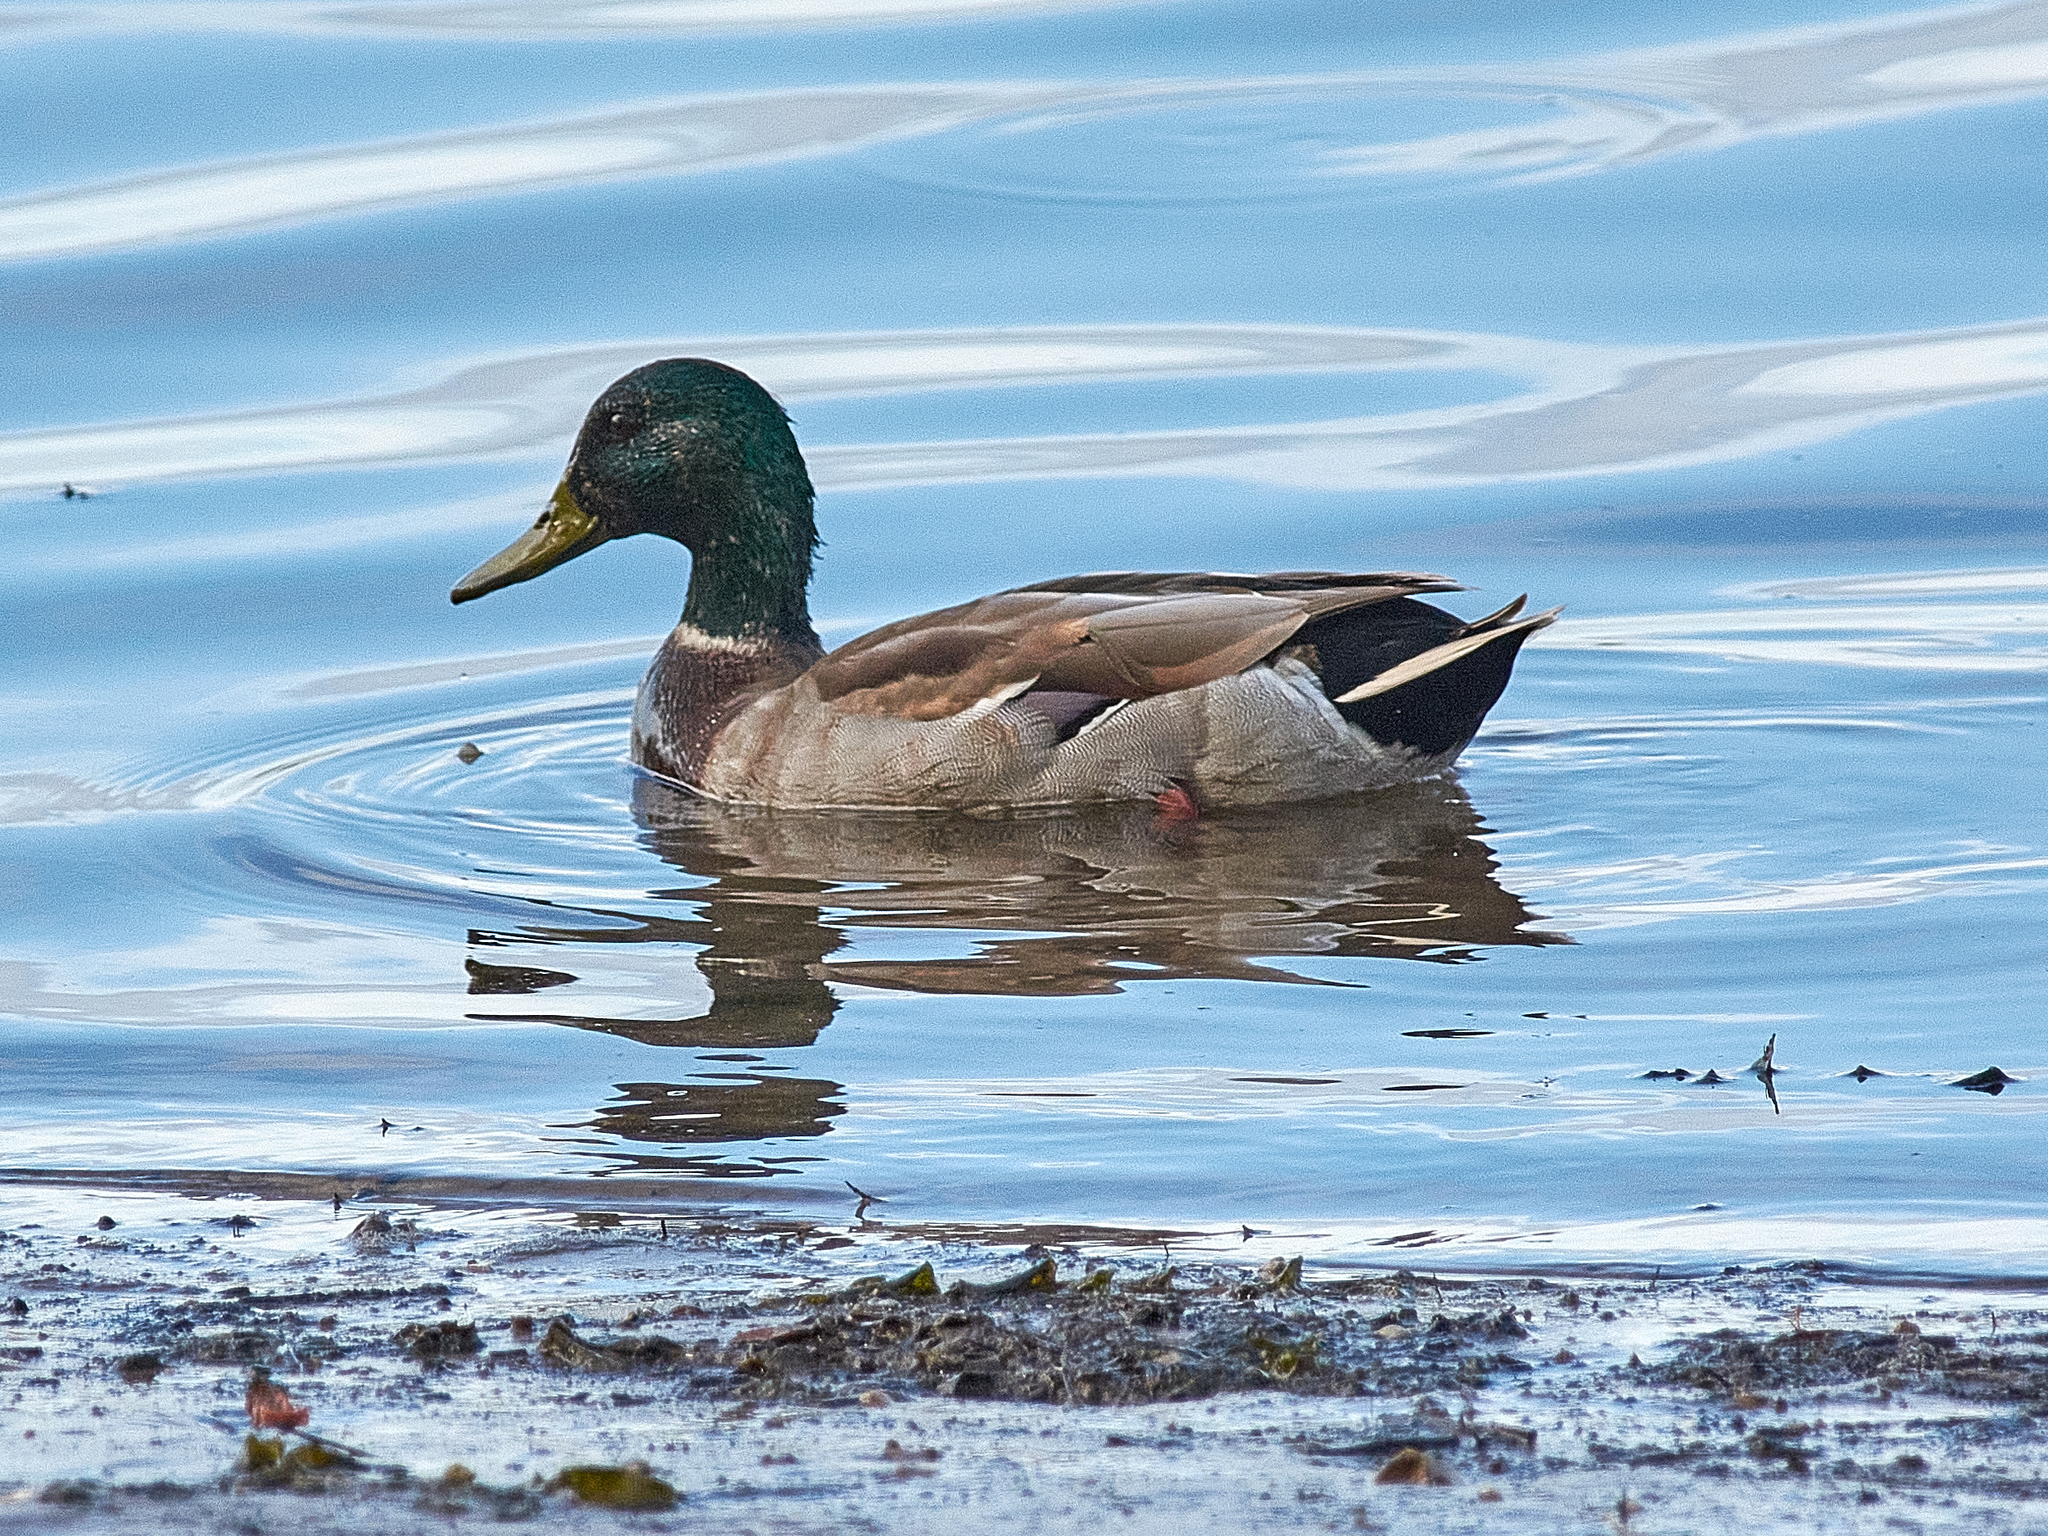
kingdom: Animalia
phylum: Chordata
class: Aves
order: Anseriformes
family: Anatidae
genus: Anas
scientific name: Anas platyrhynchos
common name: Mallard
